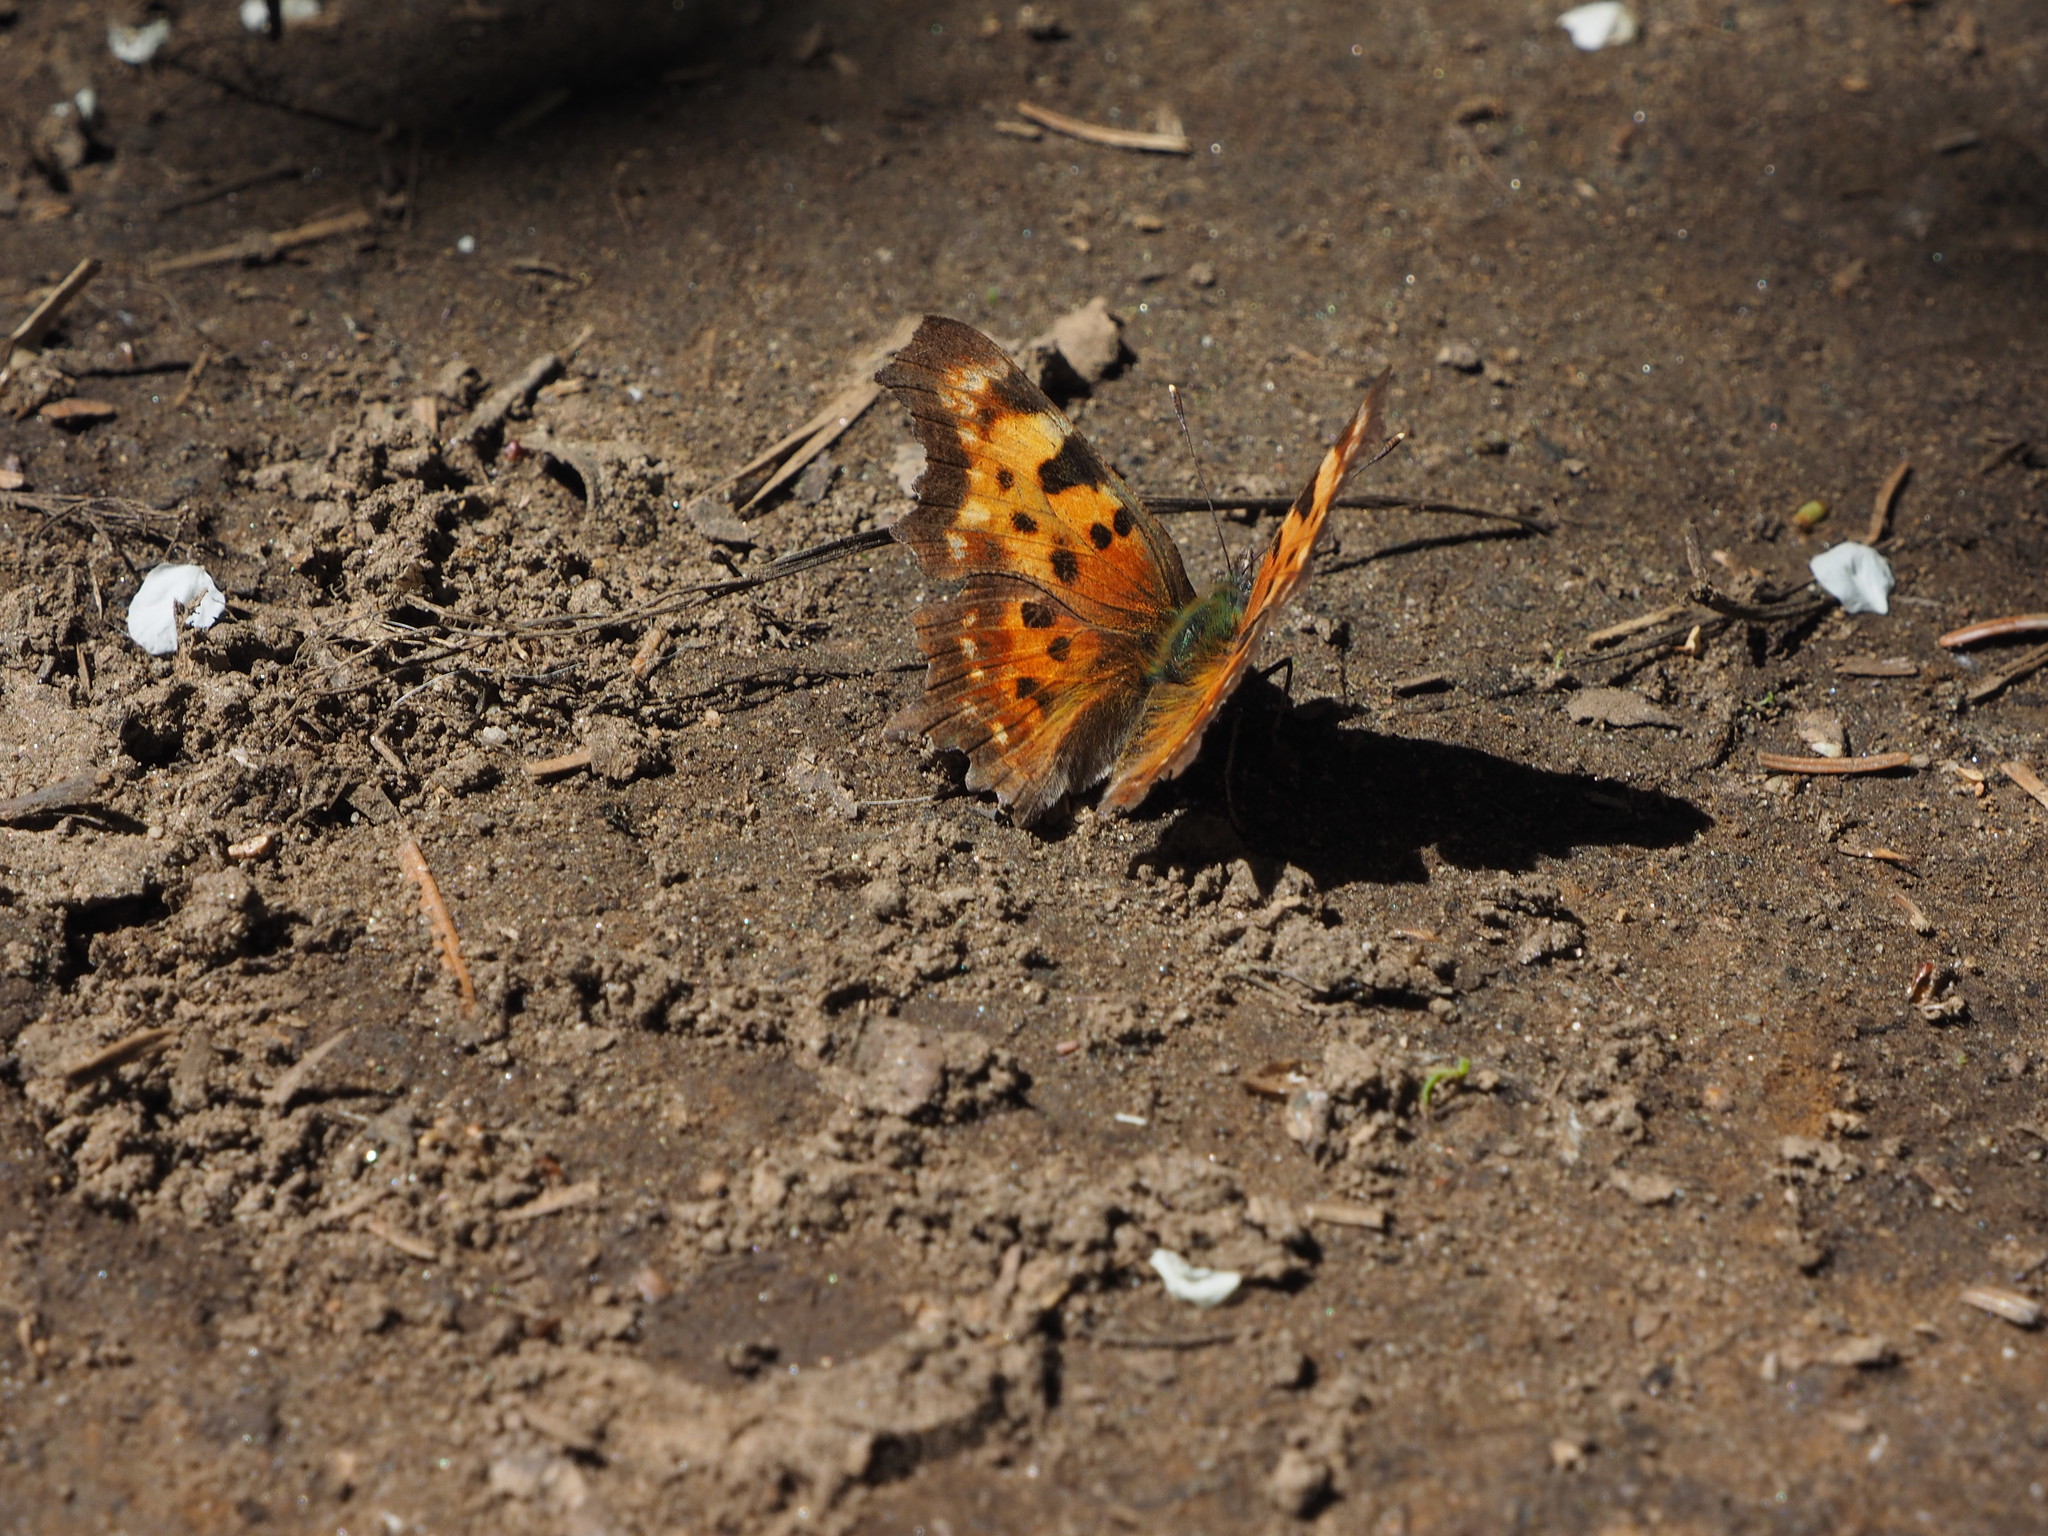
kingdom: Animalia
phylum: Arthropoda
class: Insecta
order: Lepidoptera
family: Nymphalidae
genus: Polygonia
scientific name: Polygonia faunus
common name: Green comma
